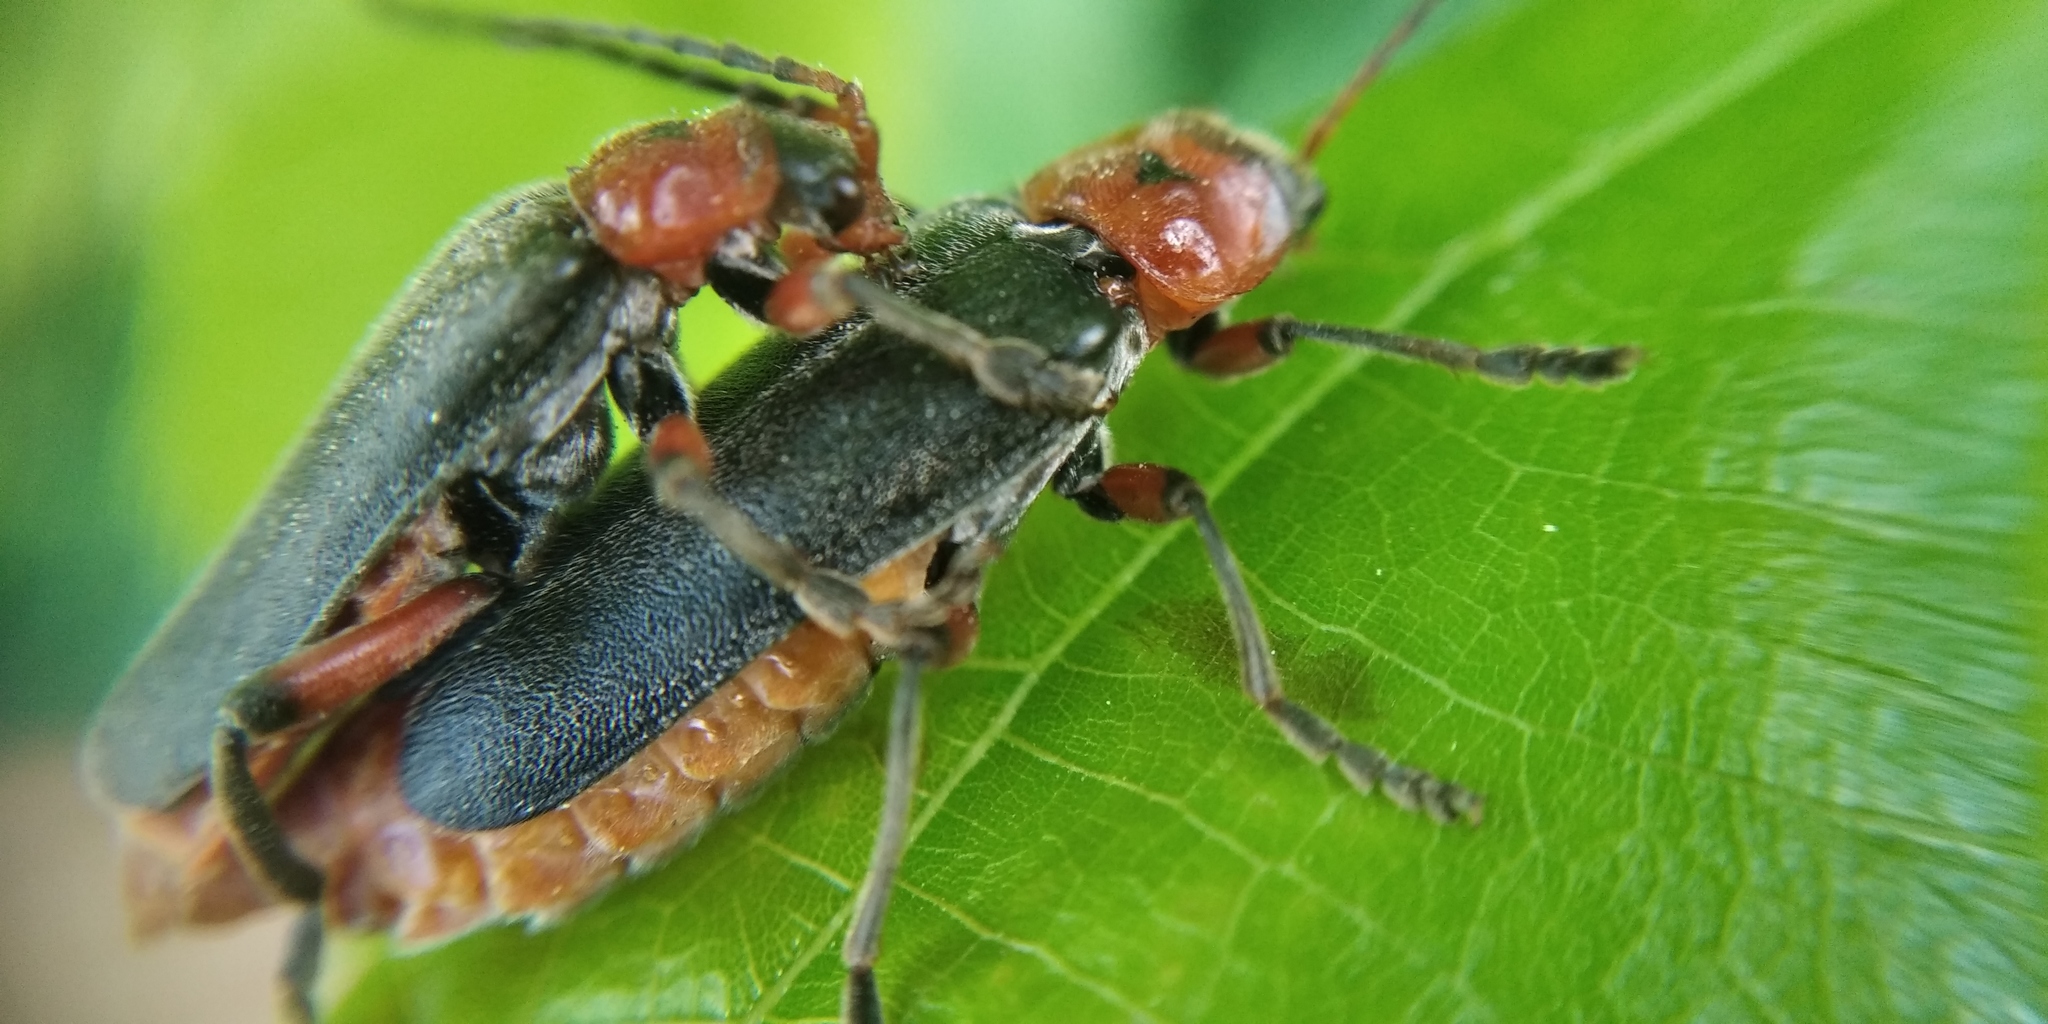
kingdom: Animalia
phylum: Arthropoda
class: Insecta
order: Coleoptera
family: Cantharidae
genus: Cantharis
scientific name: Cantharis rustica
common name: Soldier beetle
